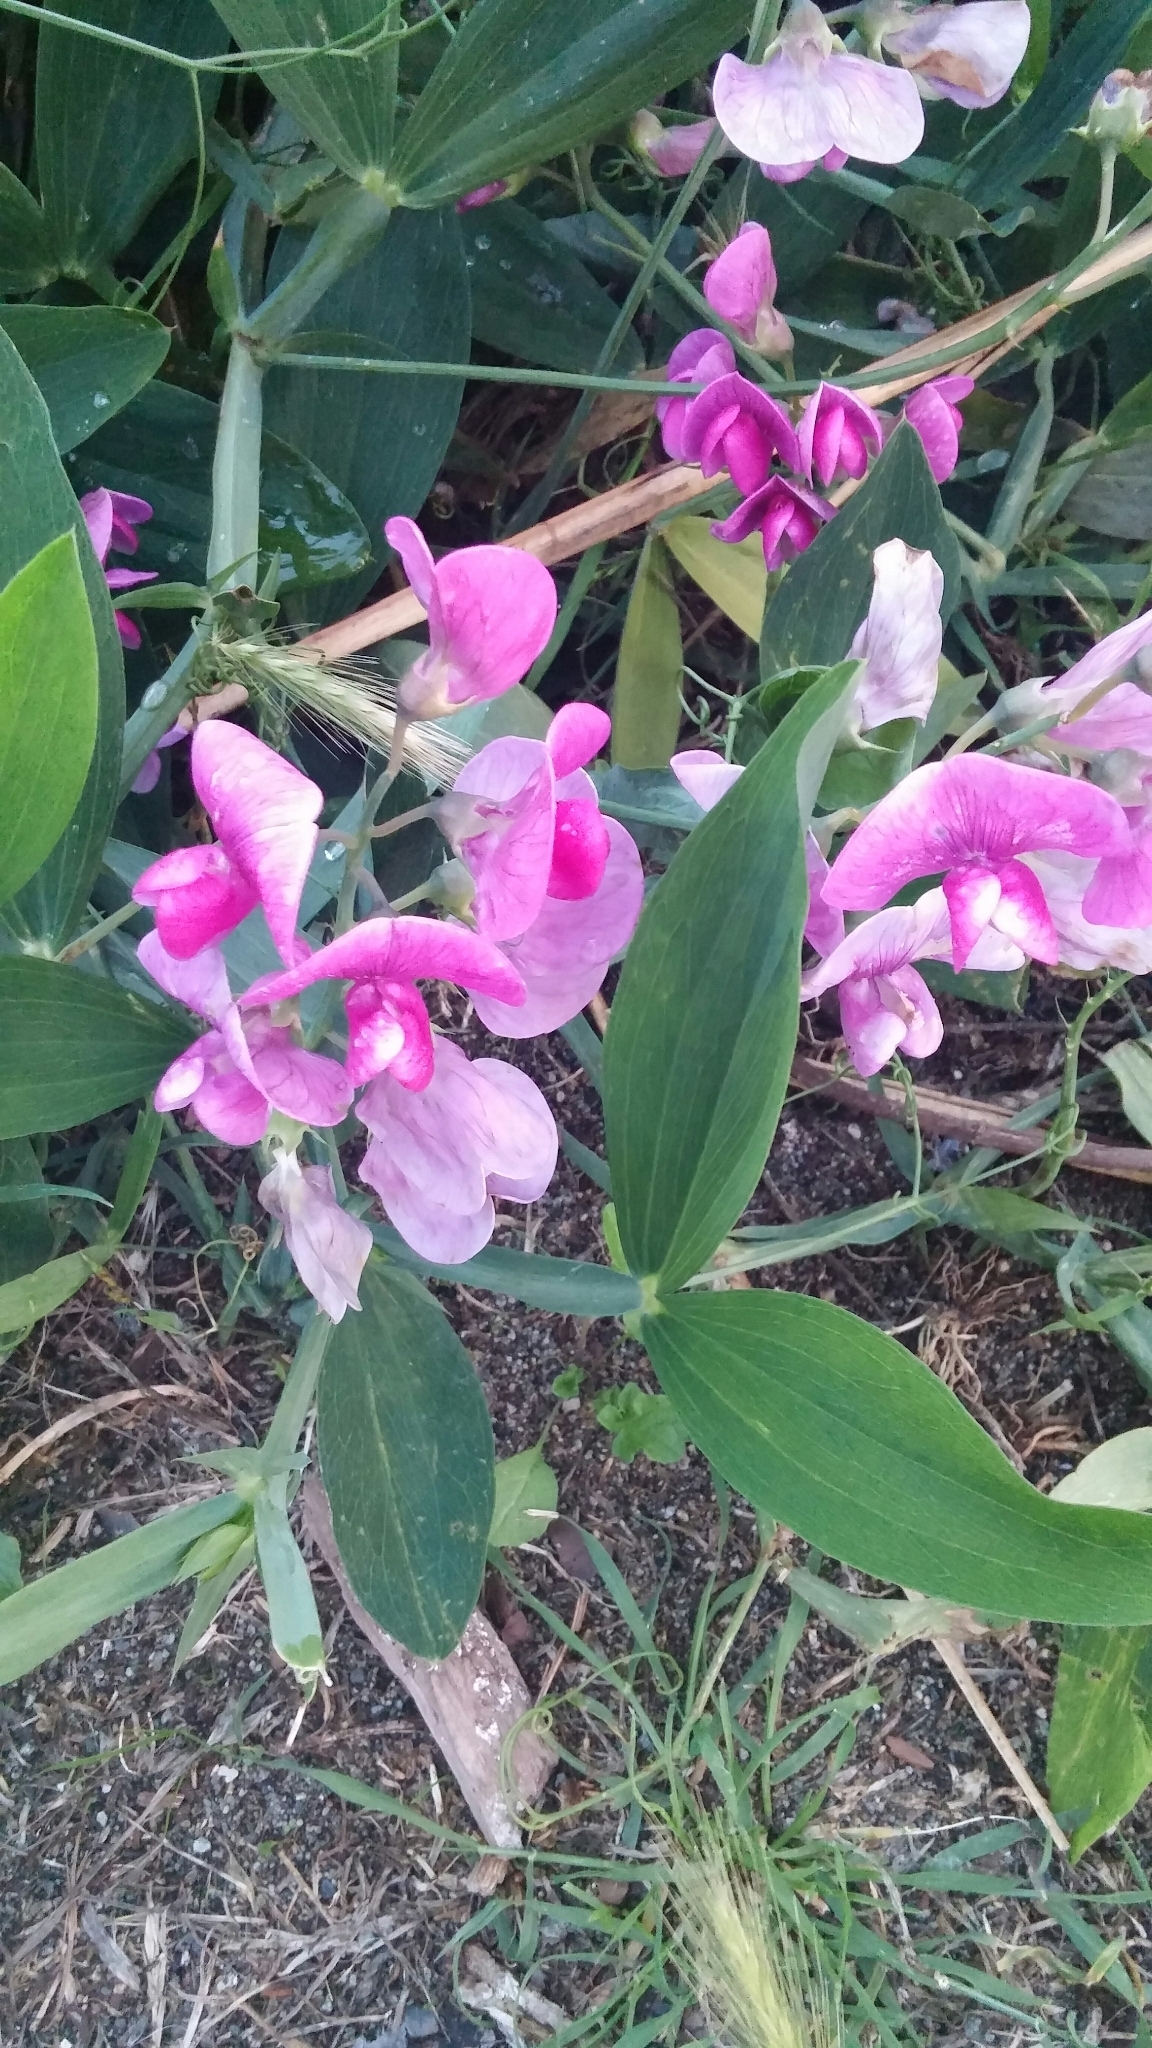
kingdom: Plantae
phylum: Tracheophyta
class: Magnoliopsida
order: Fabales
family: Fabaceae
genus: Lathyrus
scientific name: Lathyrus latifolius
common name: Perennial pea
